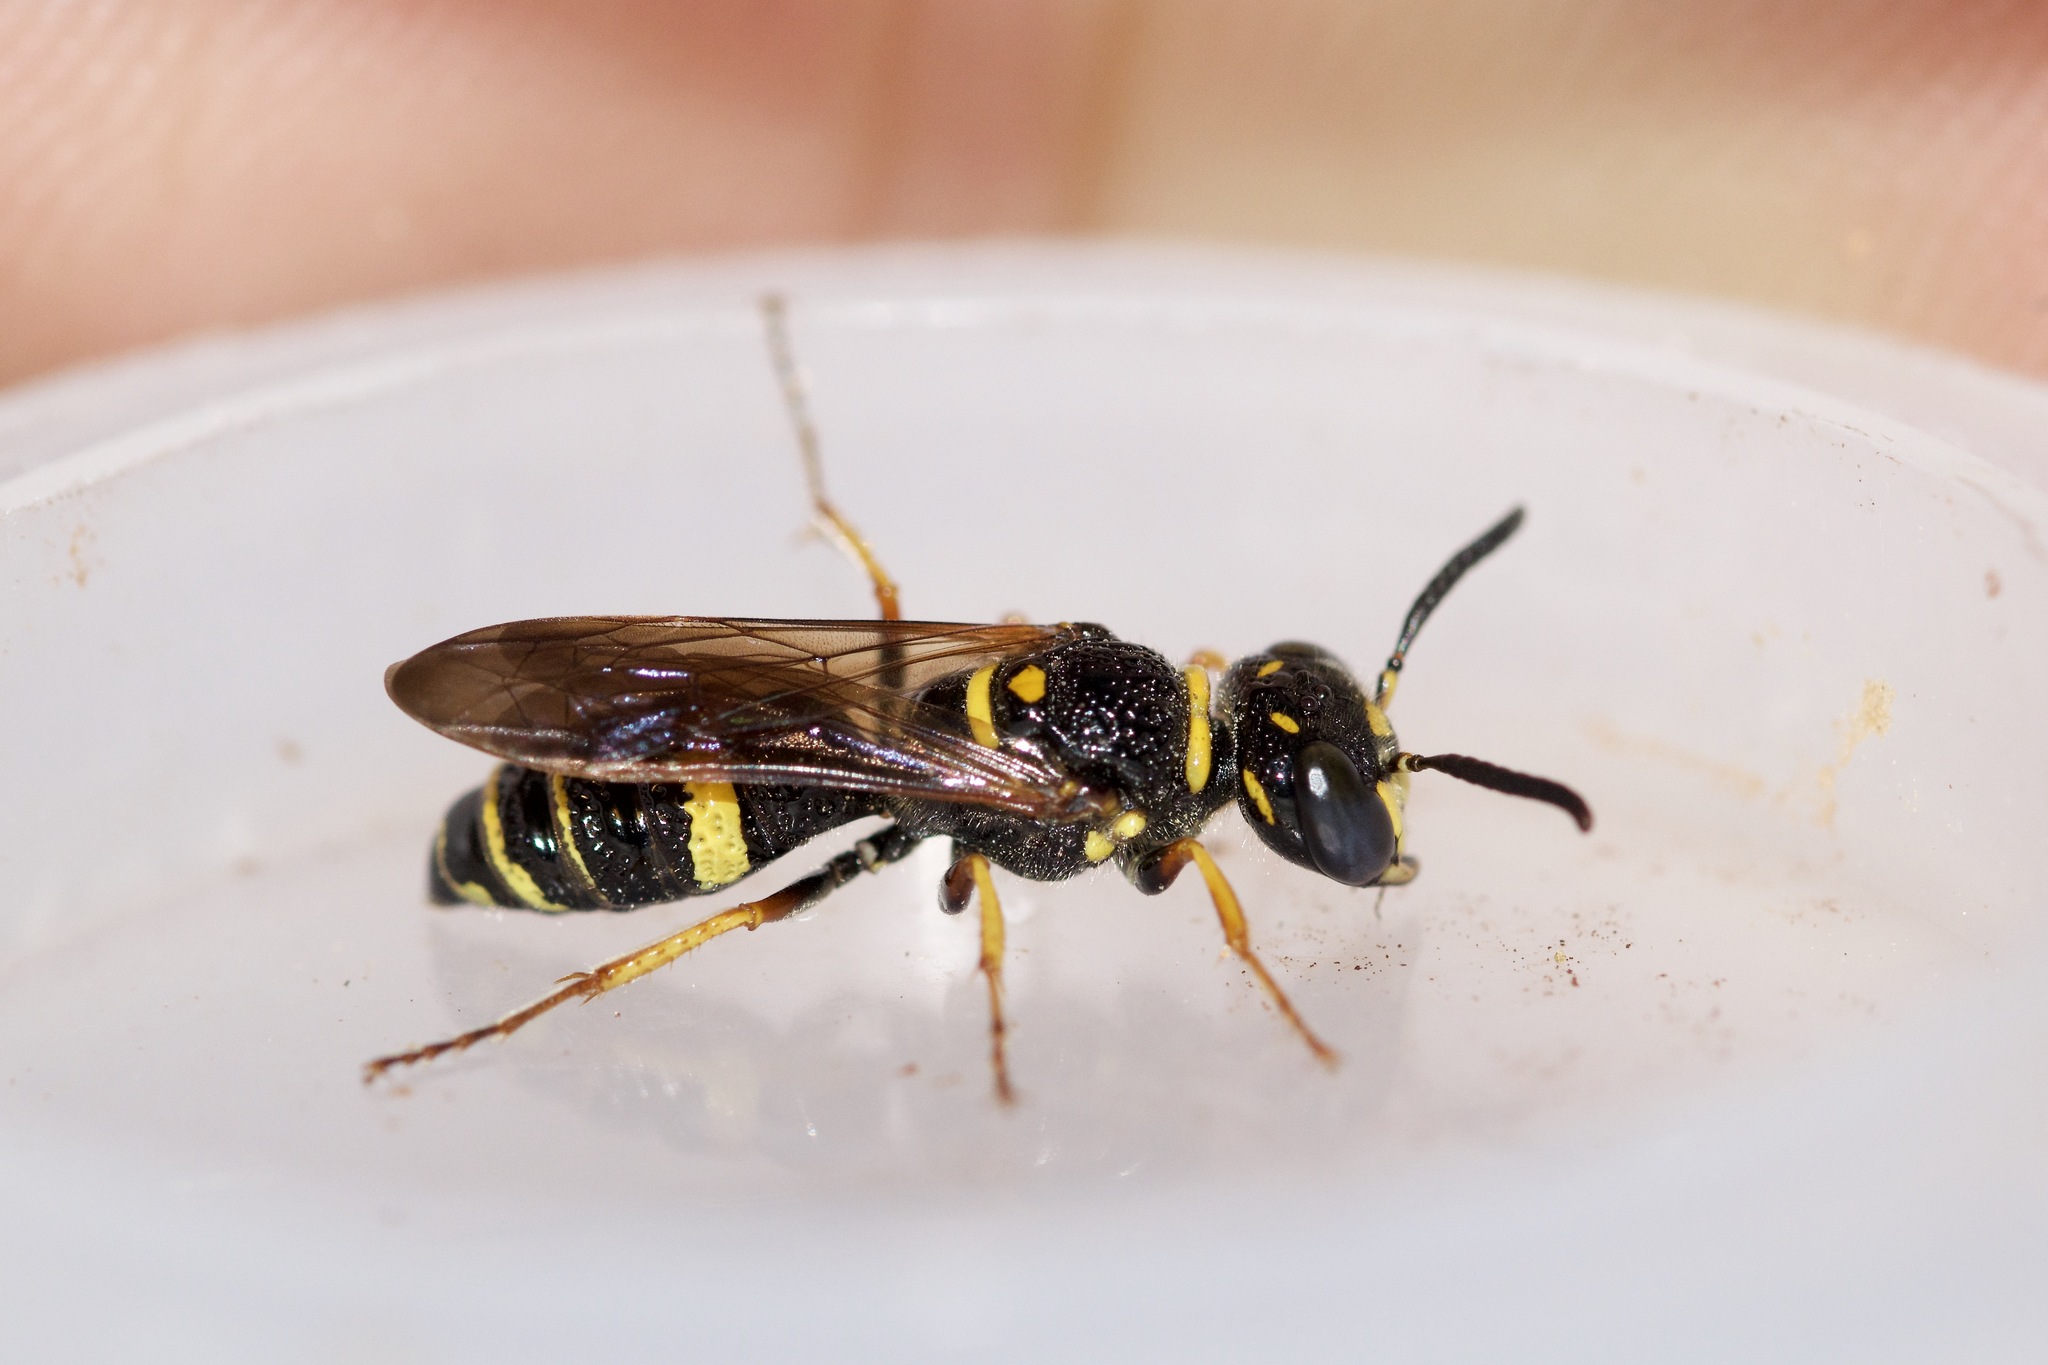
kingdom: Animalia
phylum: Arthropoda
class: Insecta
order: Hymenoptera
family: Crabronidae
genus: Philanthus
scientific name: Philanthus gibbosus
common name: Humped beewolf
